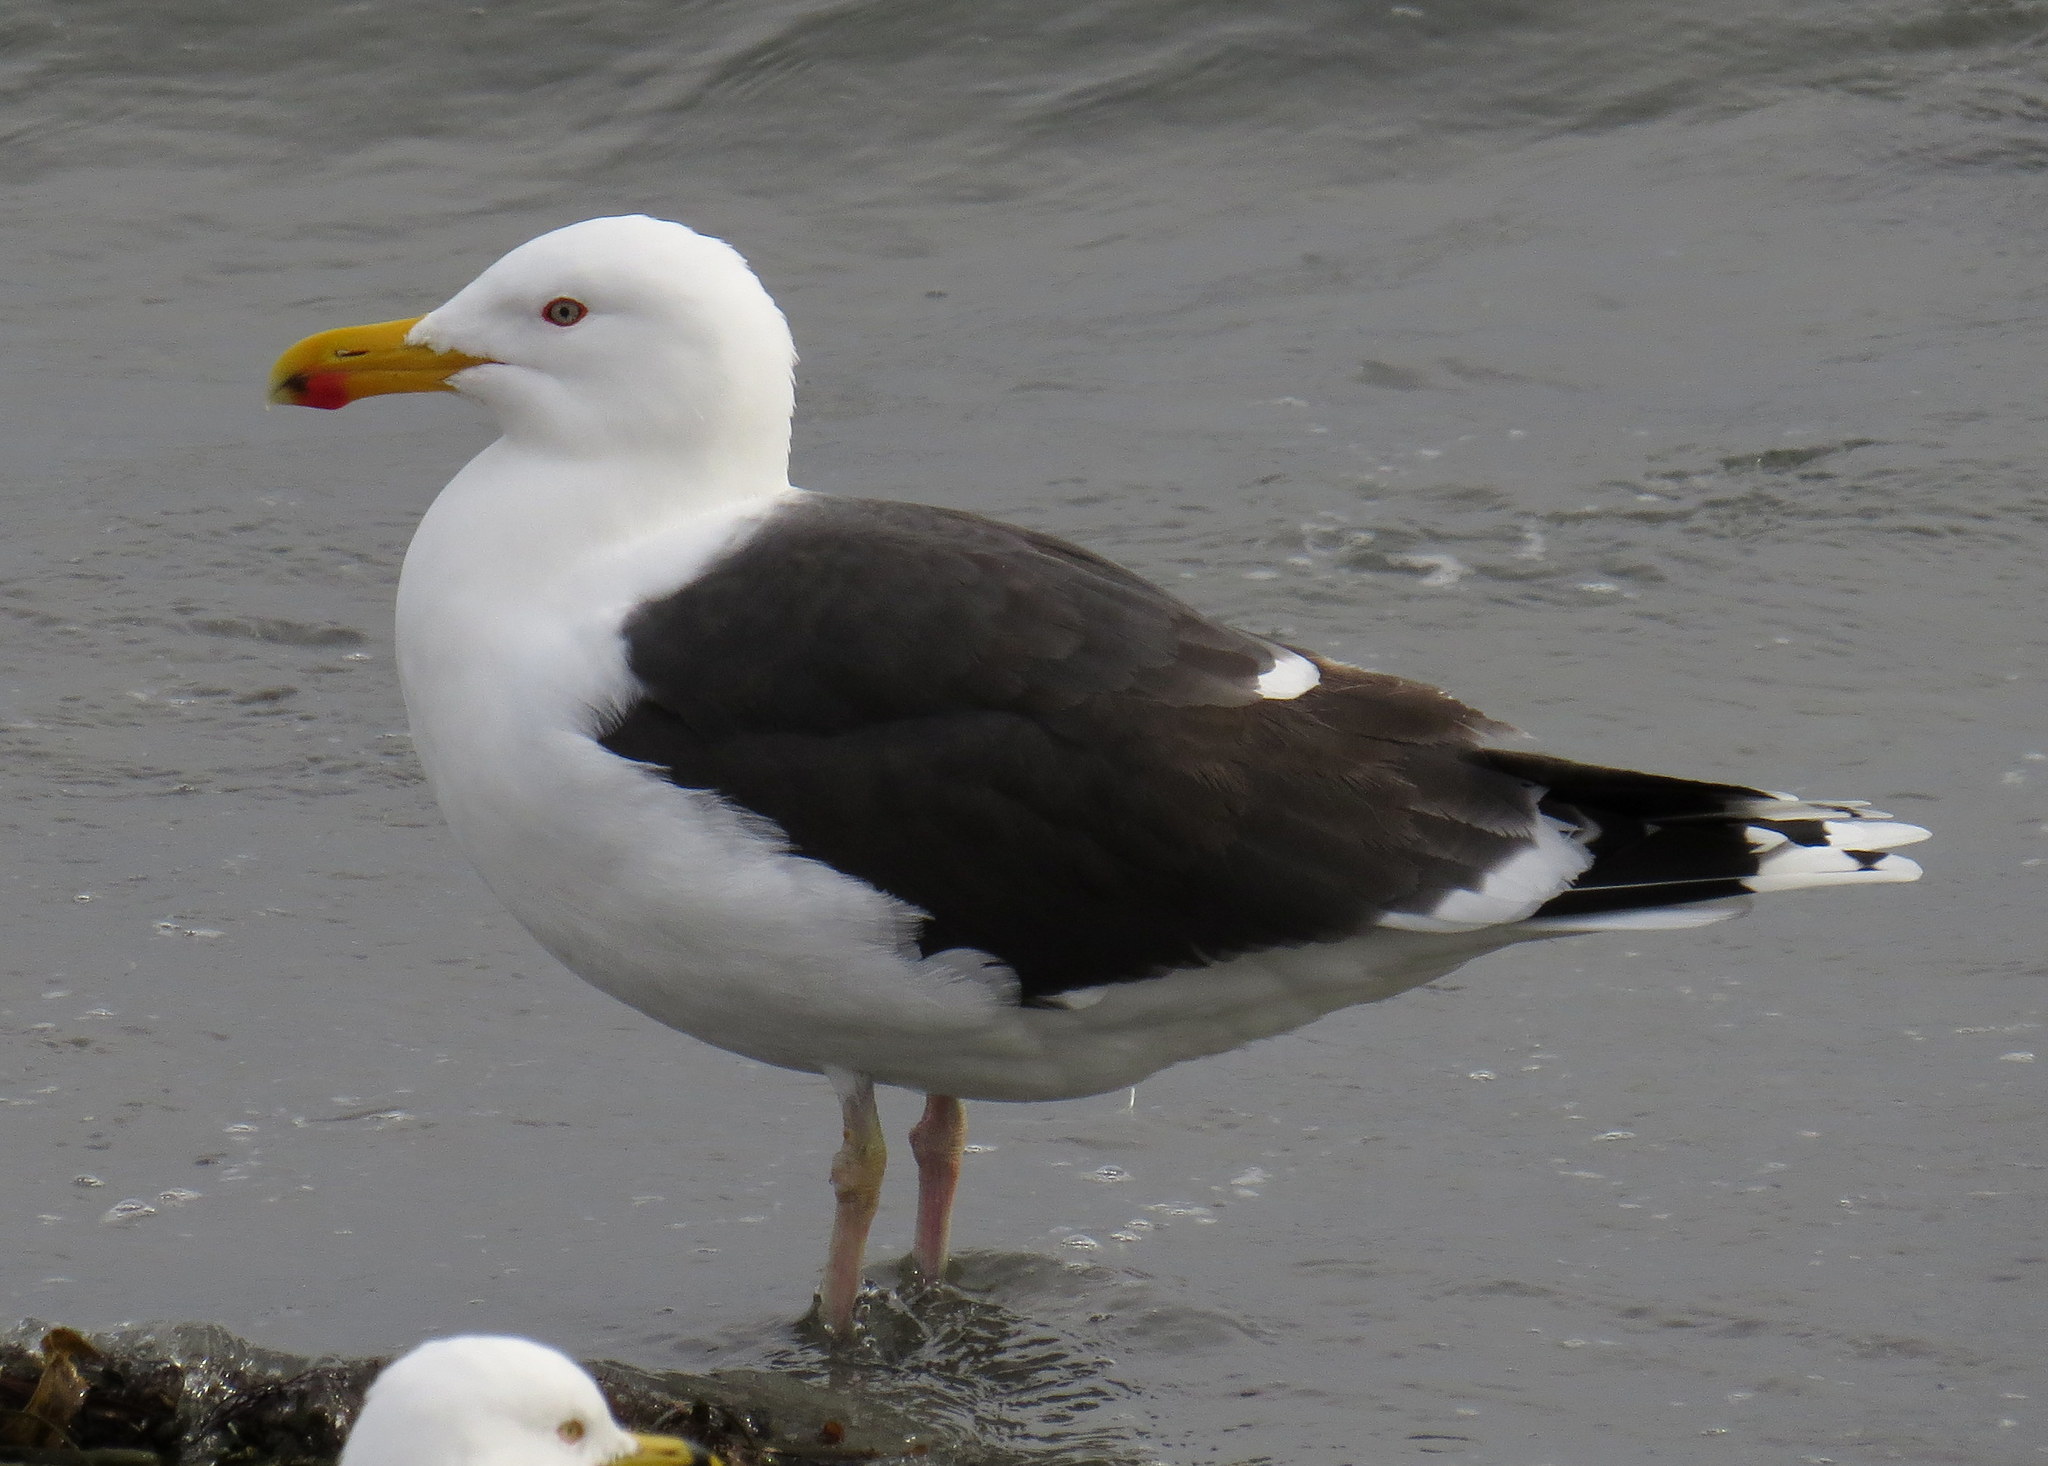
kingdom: Animalia
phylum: Chordata
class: Aves
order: Charadriiformes
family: Laridae
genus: Larus
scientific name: Larus marinus
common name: Great black-backed gull
